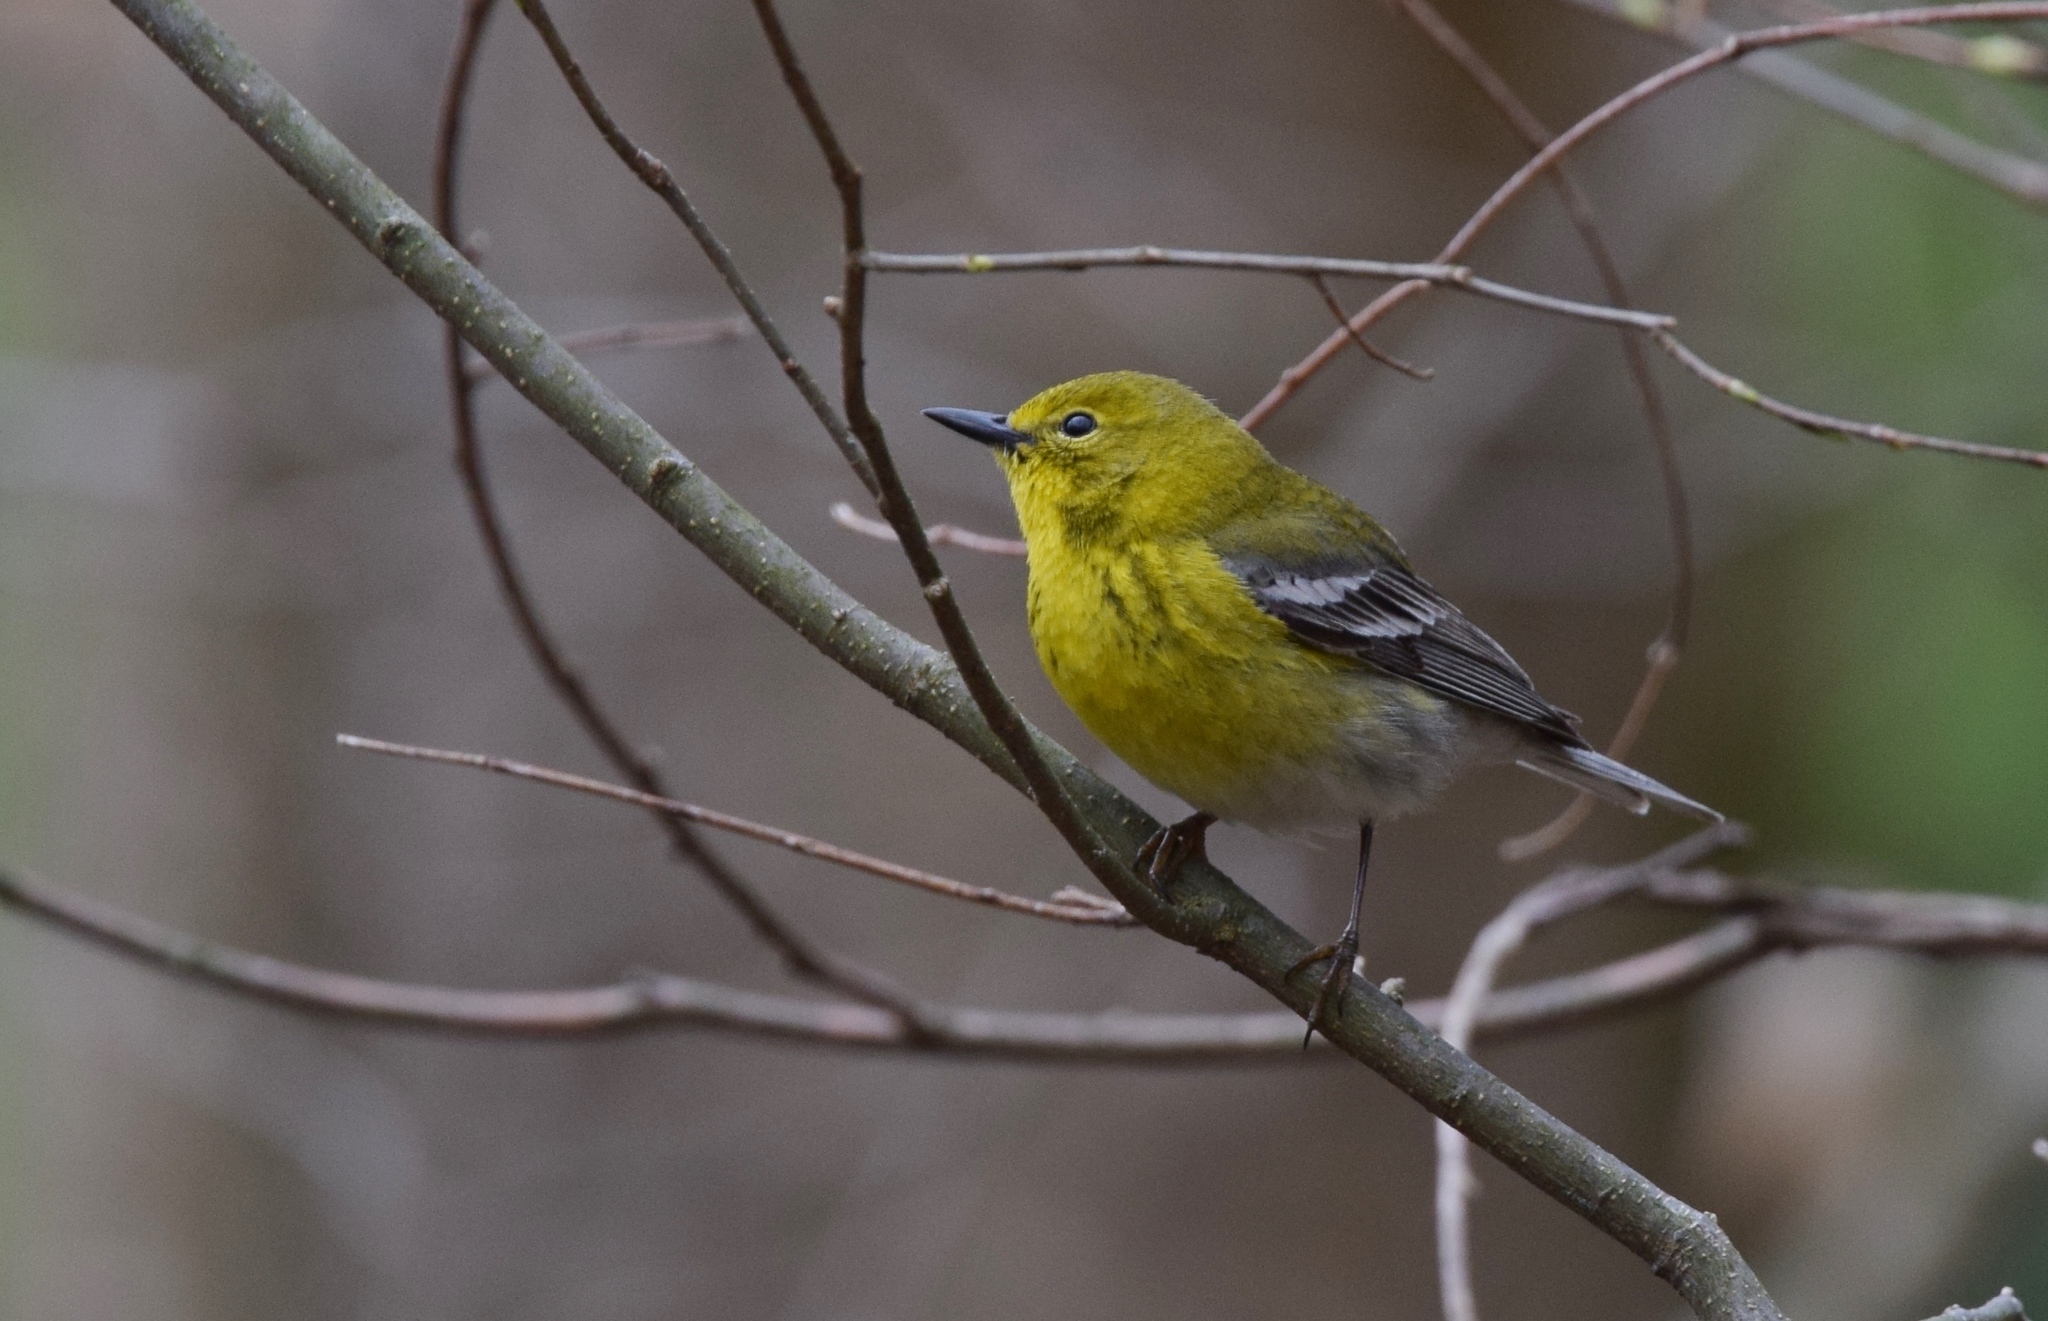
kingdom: Animalia
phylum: Chordata
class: Aves
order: Passeriformes
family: Parulidae
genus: Setophaga
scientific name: Setophaga pinus
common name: Pine warbler
